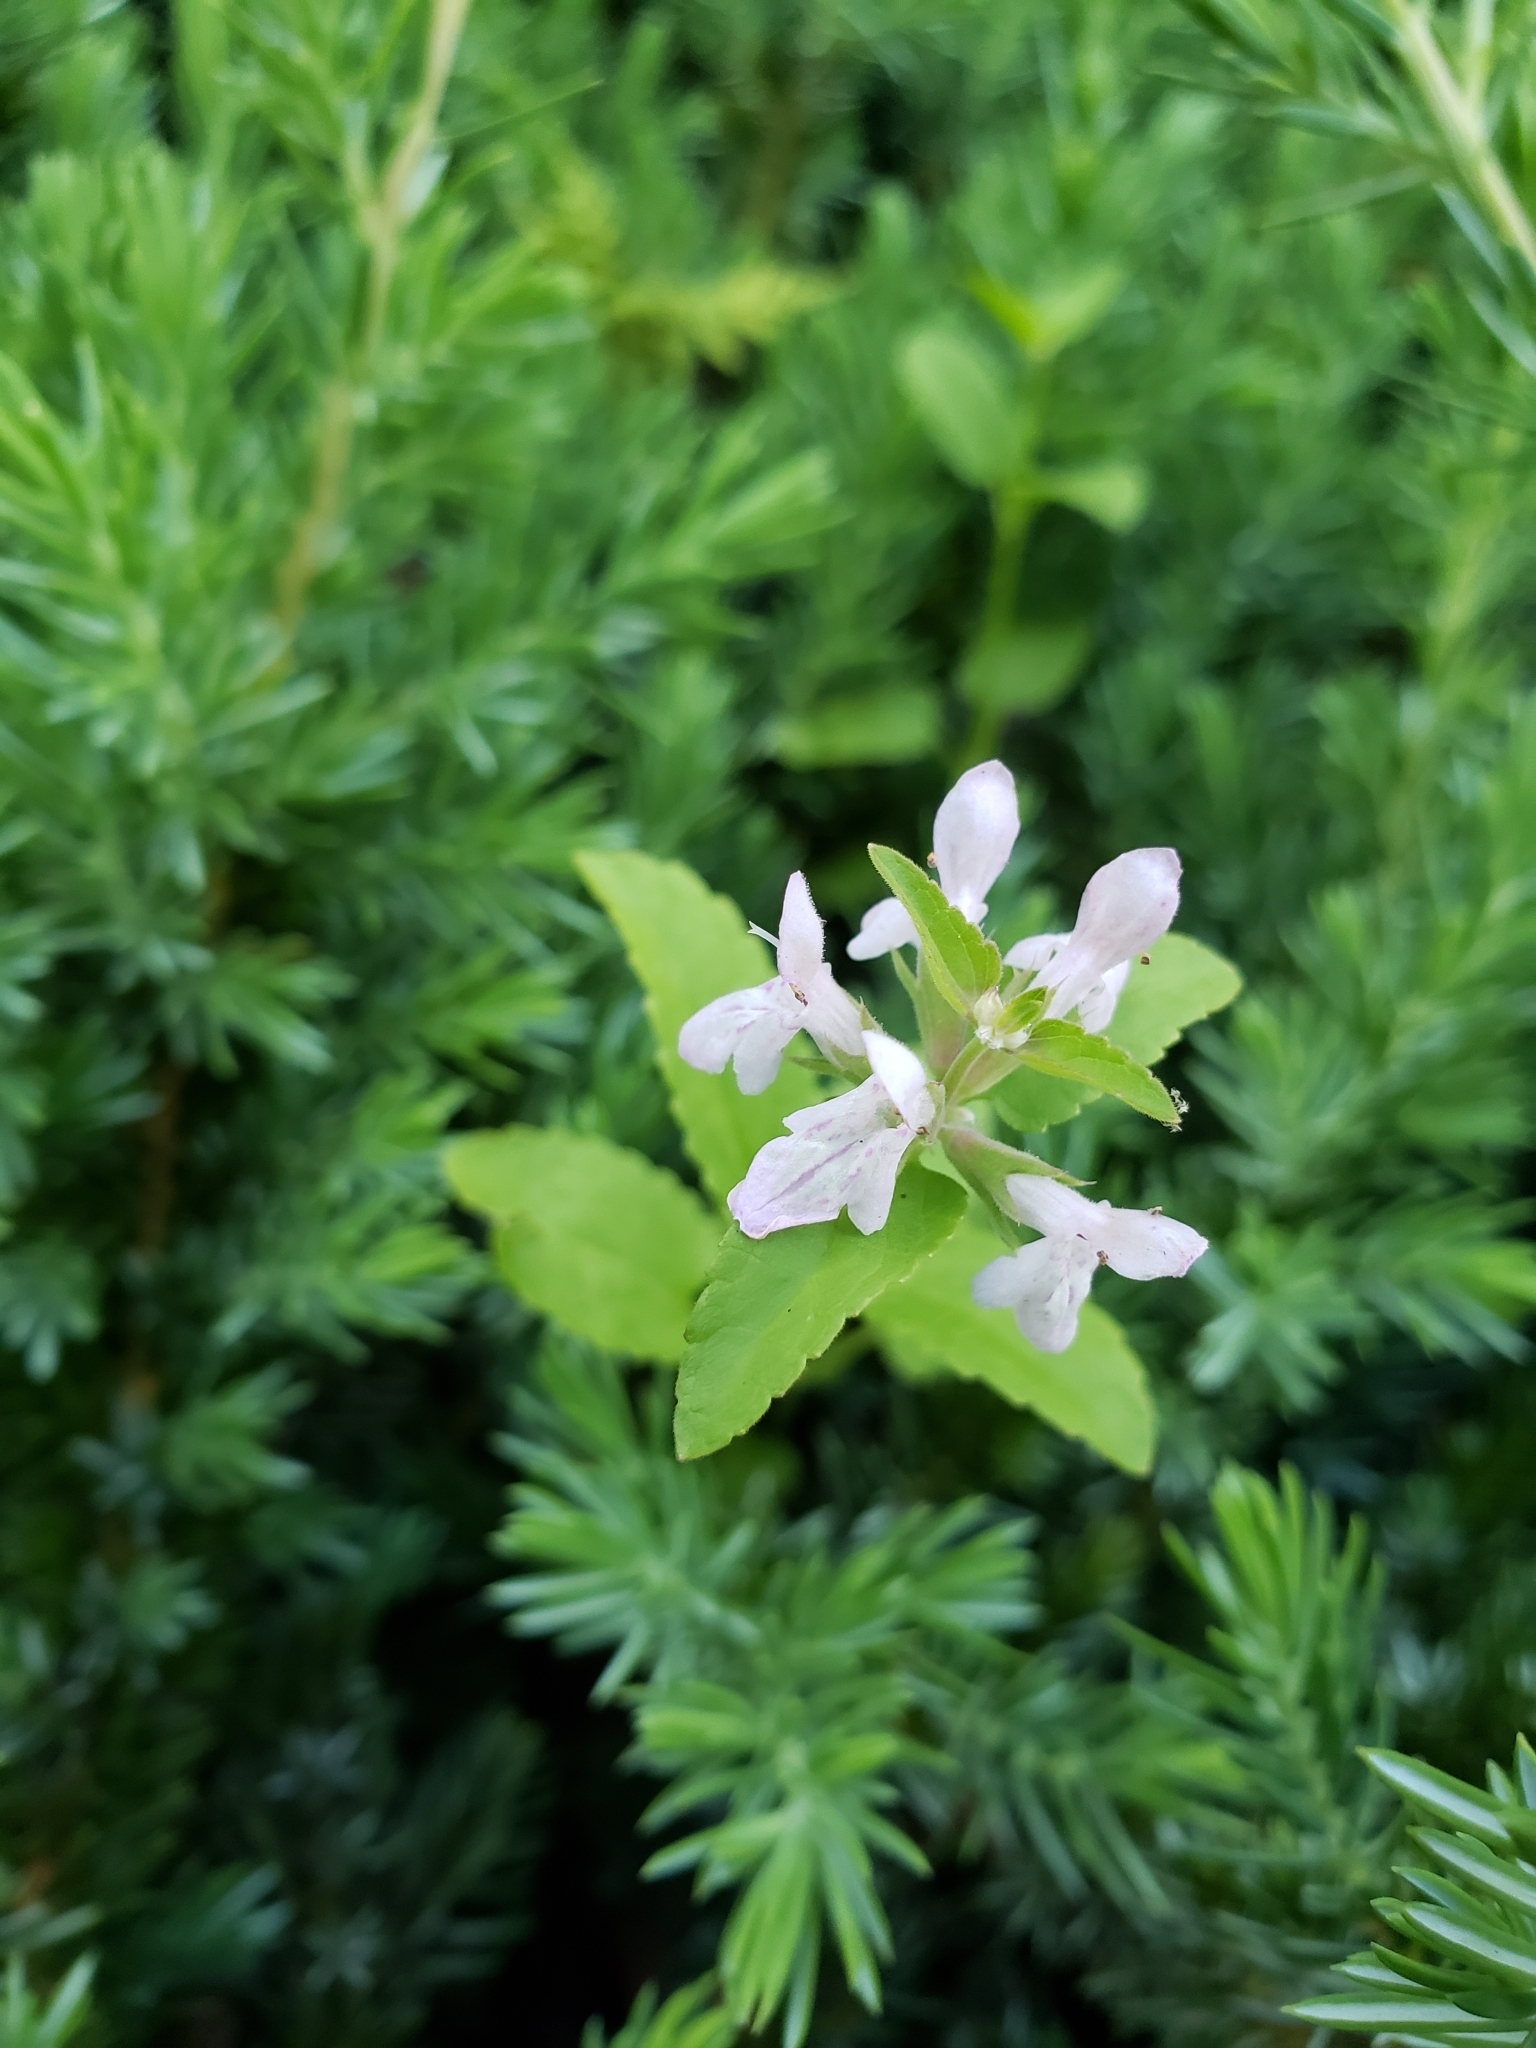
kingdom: Plantae
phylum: Tracheophyta
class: Magnoliopsida
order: Lamiales
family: Lamiaceae
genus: Stachys
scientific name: Stachys floridana
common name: Florida betony
